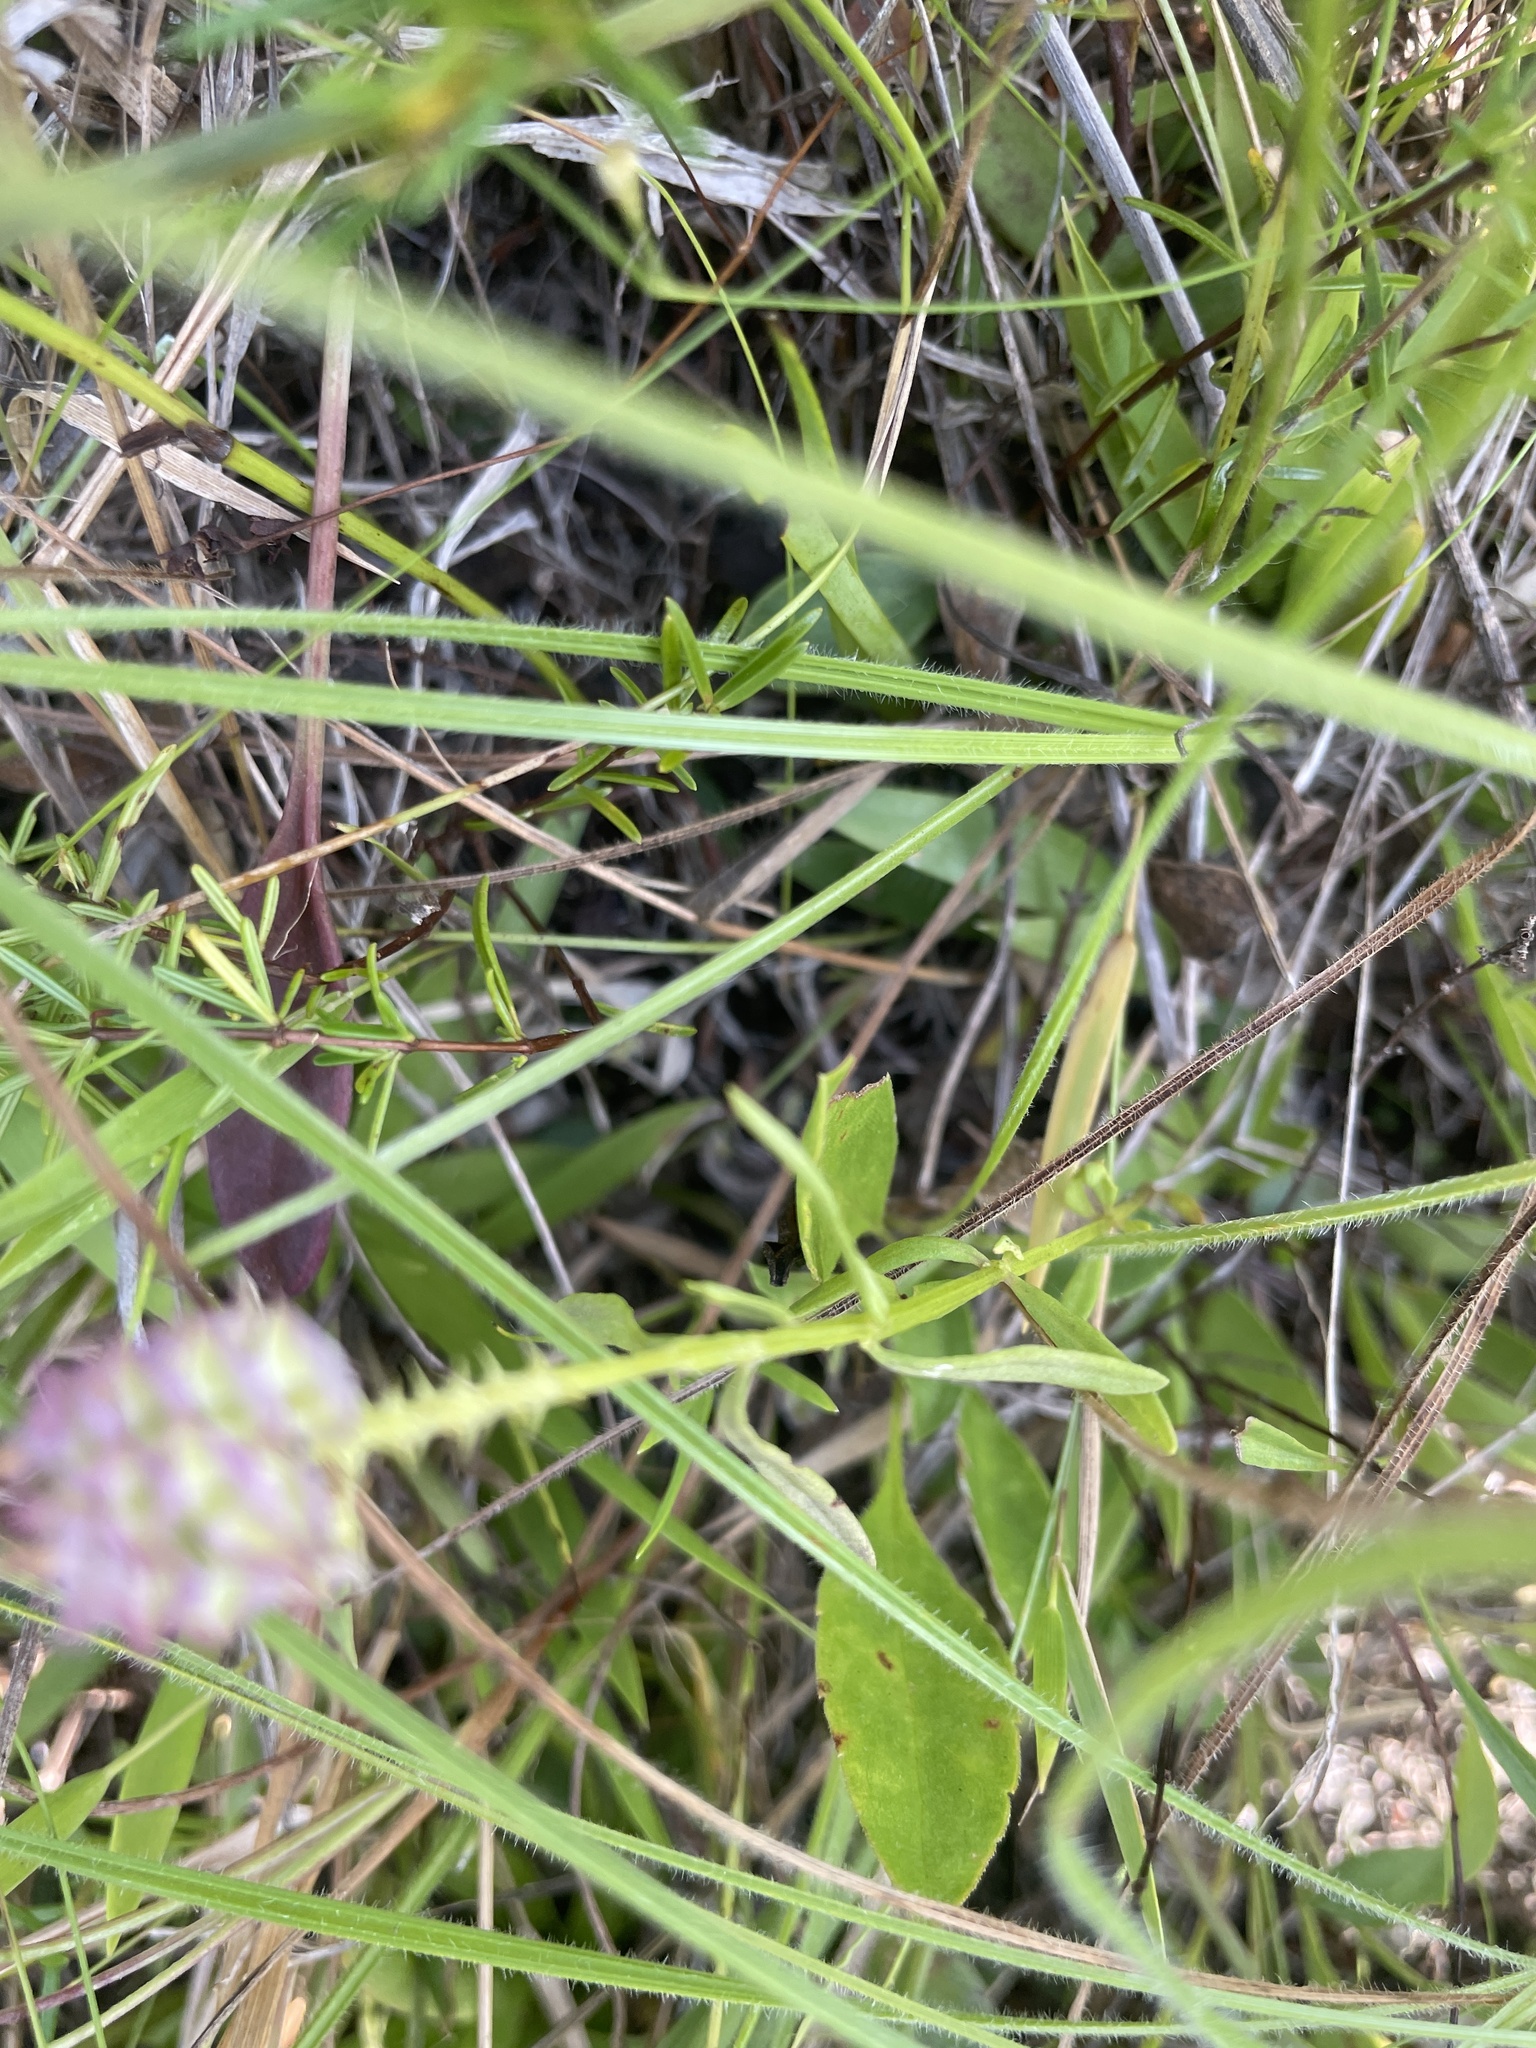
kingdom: Plantae
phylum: Tracheophyta
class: Magnoliopsida
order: Fabales
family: Polygalaceae
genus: Polygala
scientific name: Polygala cruciata
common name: Drumheads
